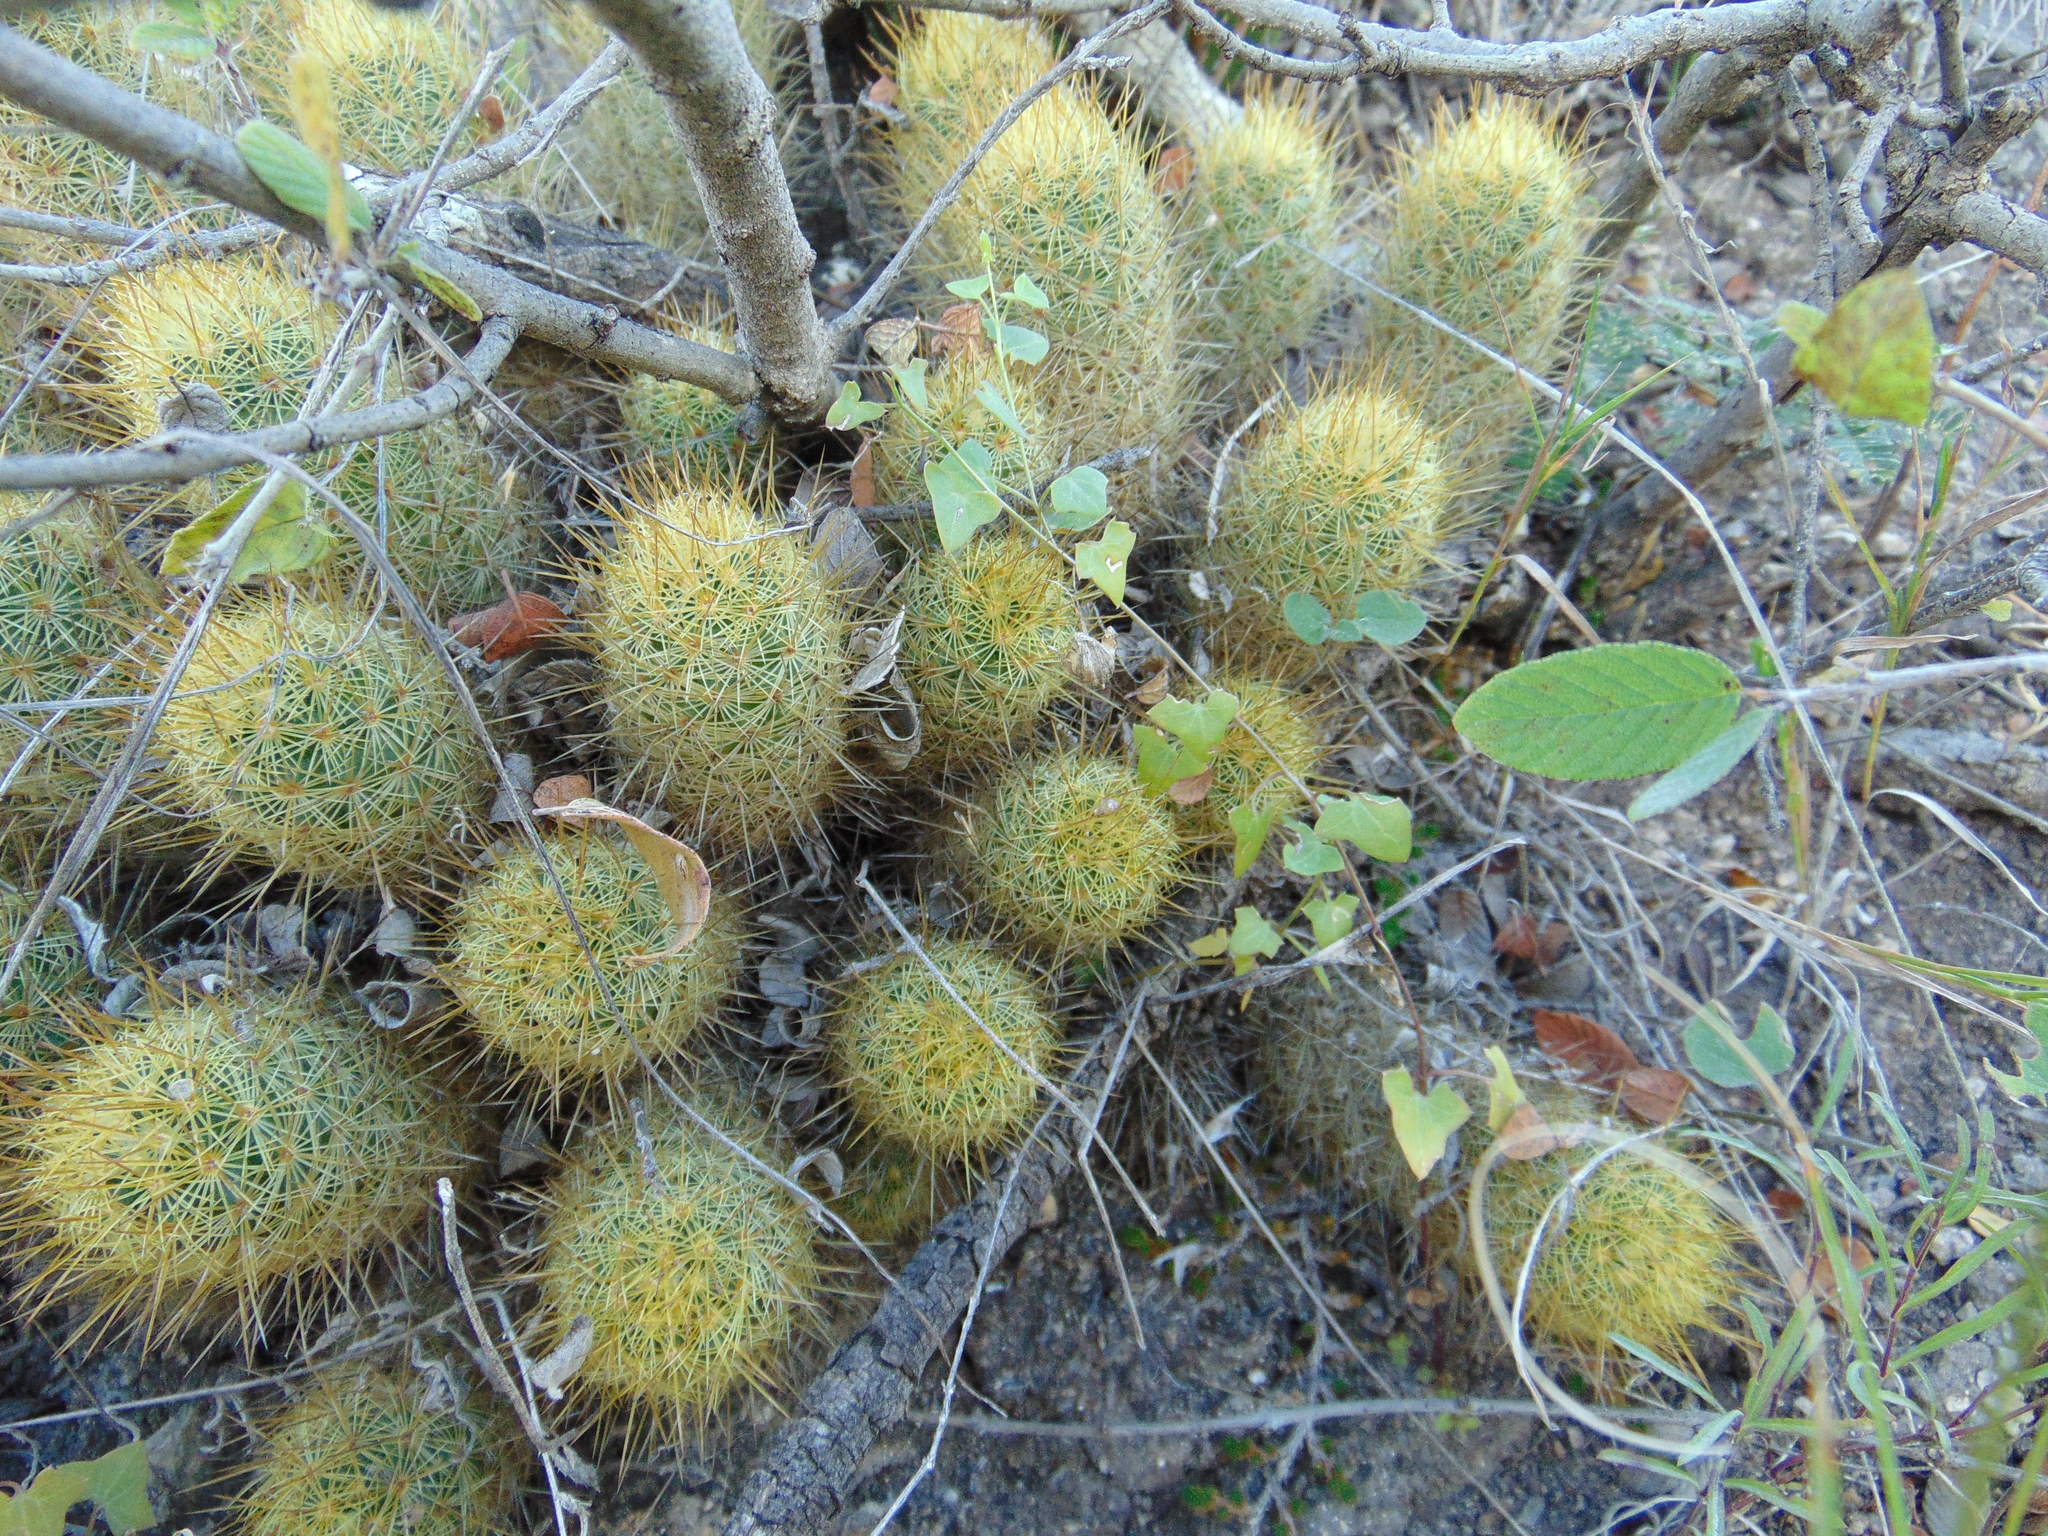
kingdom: Plantae
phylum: Tracheophyta
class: Magnoliopsida
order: Caryophyllales
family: Cactaceae
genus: Mammillaria
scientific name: Mammillaria elongata
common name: Golden star cactus
